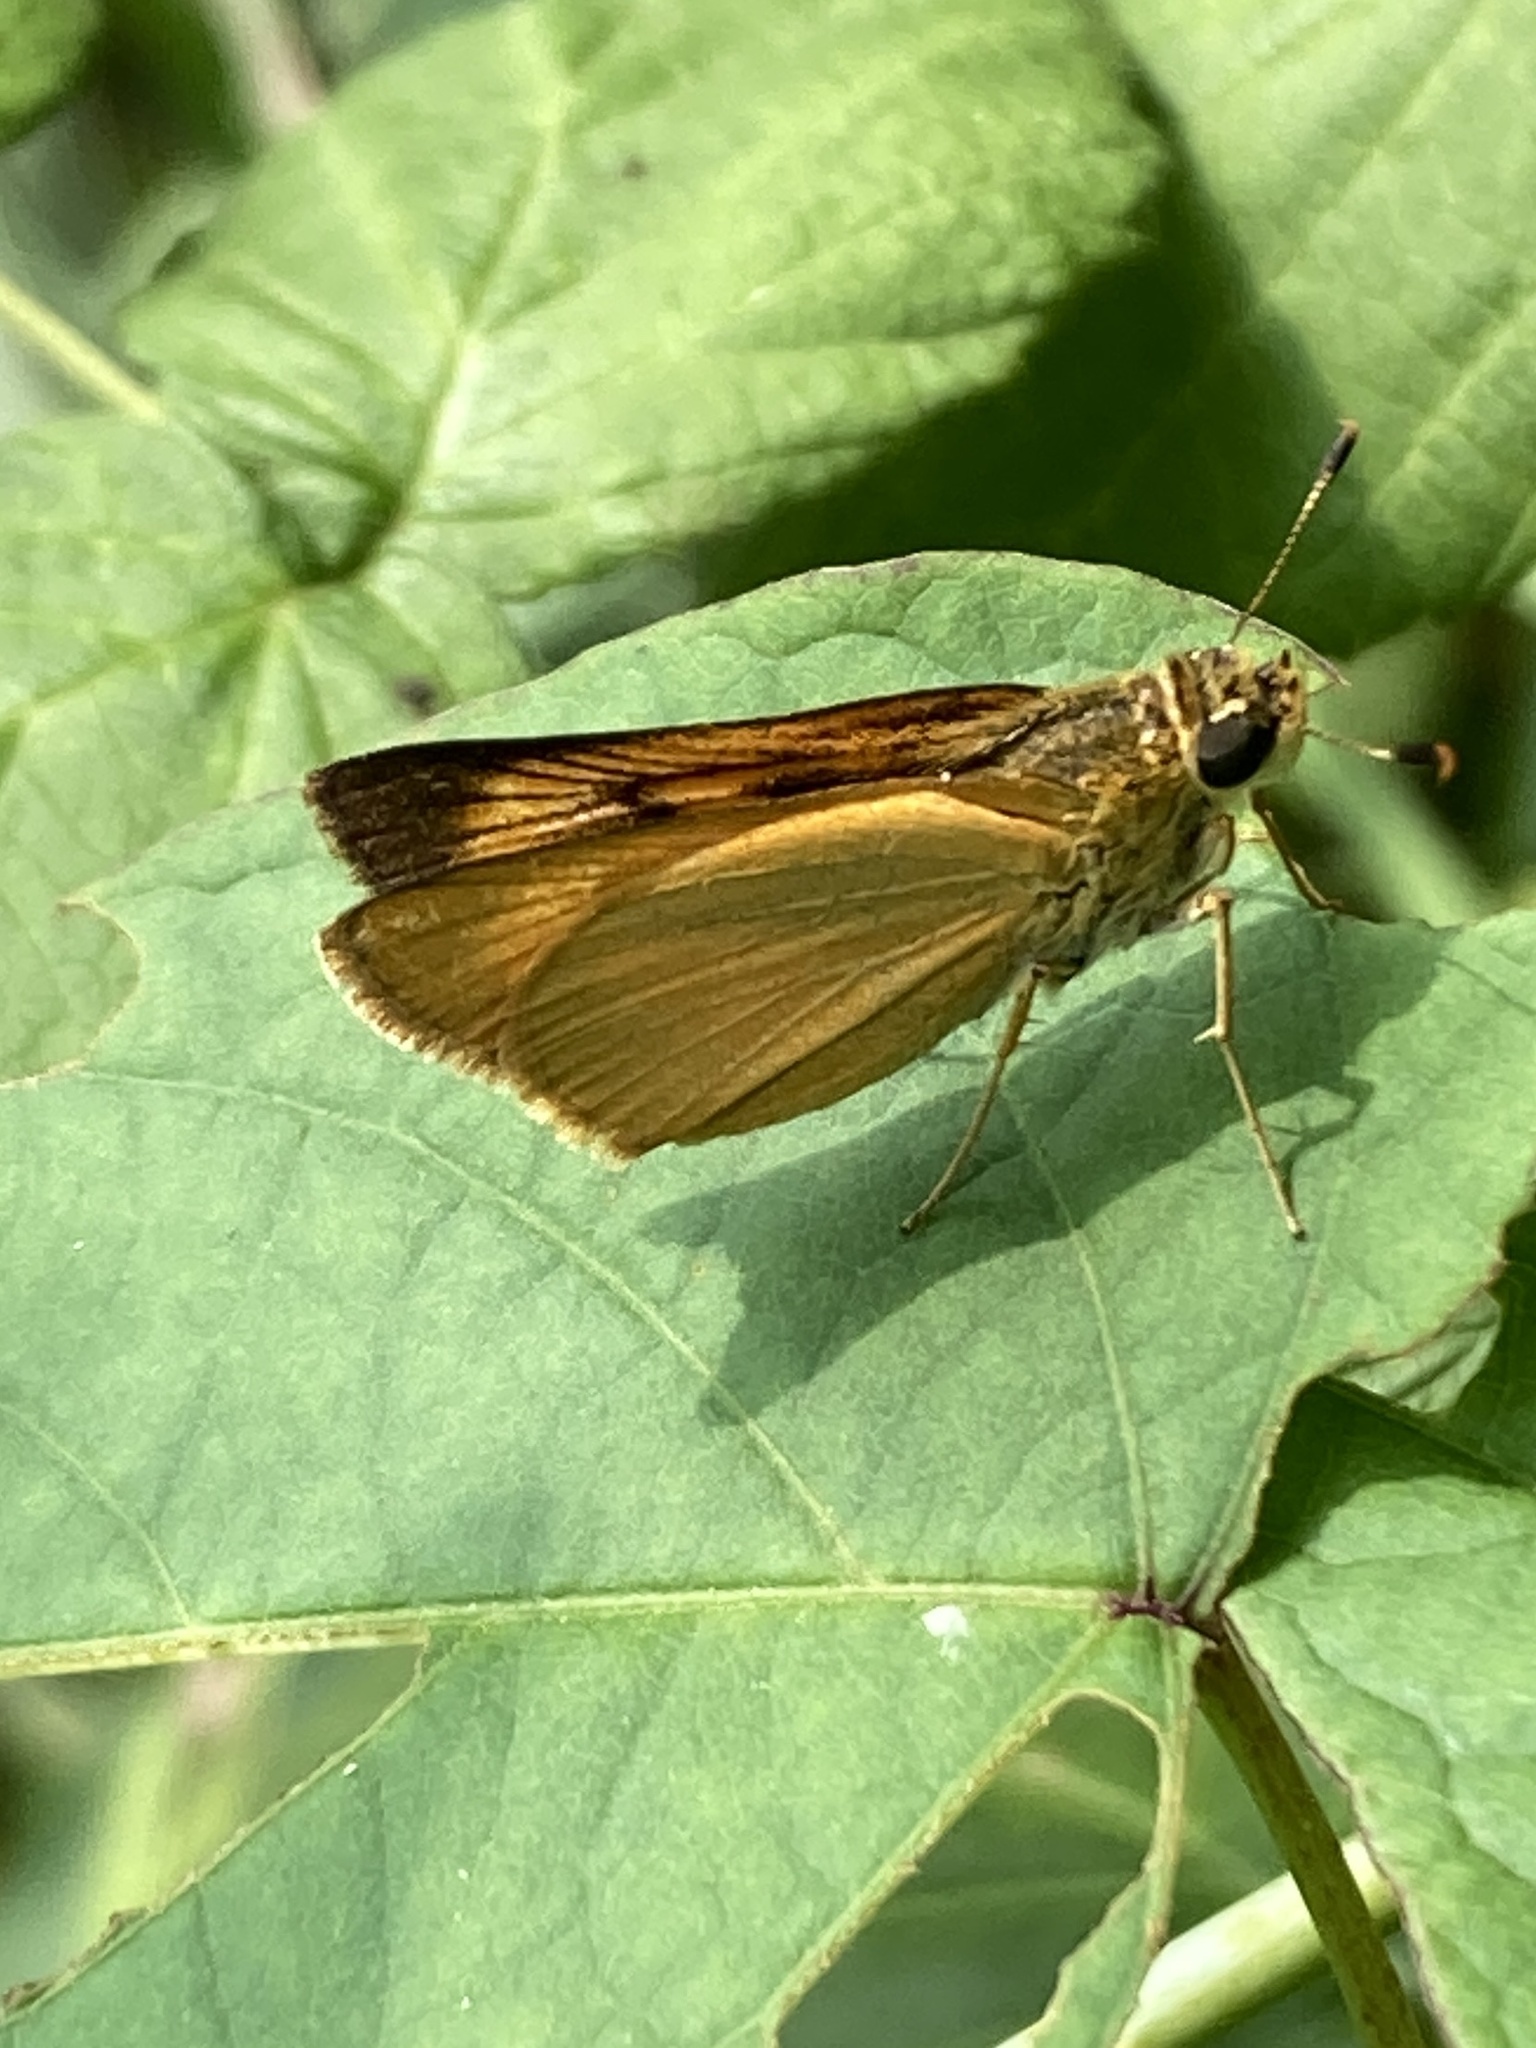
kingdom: Animalia
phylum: Arthropoda
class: Insecta
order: Lepidoptera
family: Hesperiidae
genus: Atrytone
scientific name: Atrytone delaware
